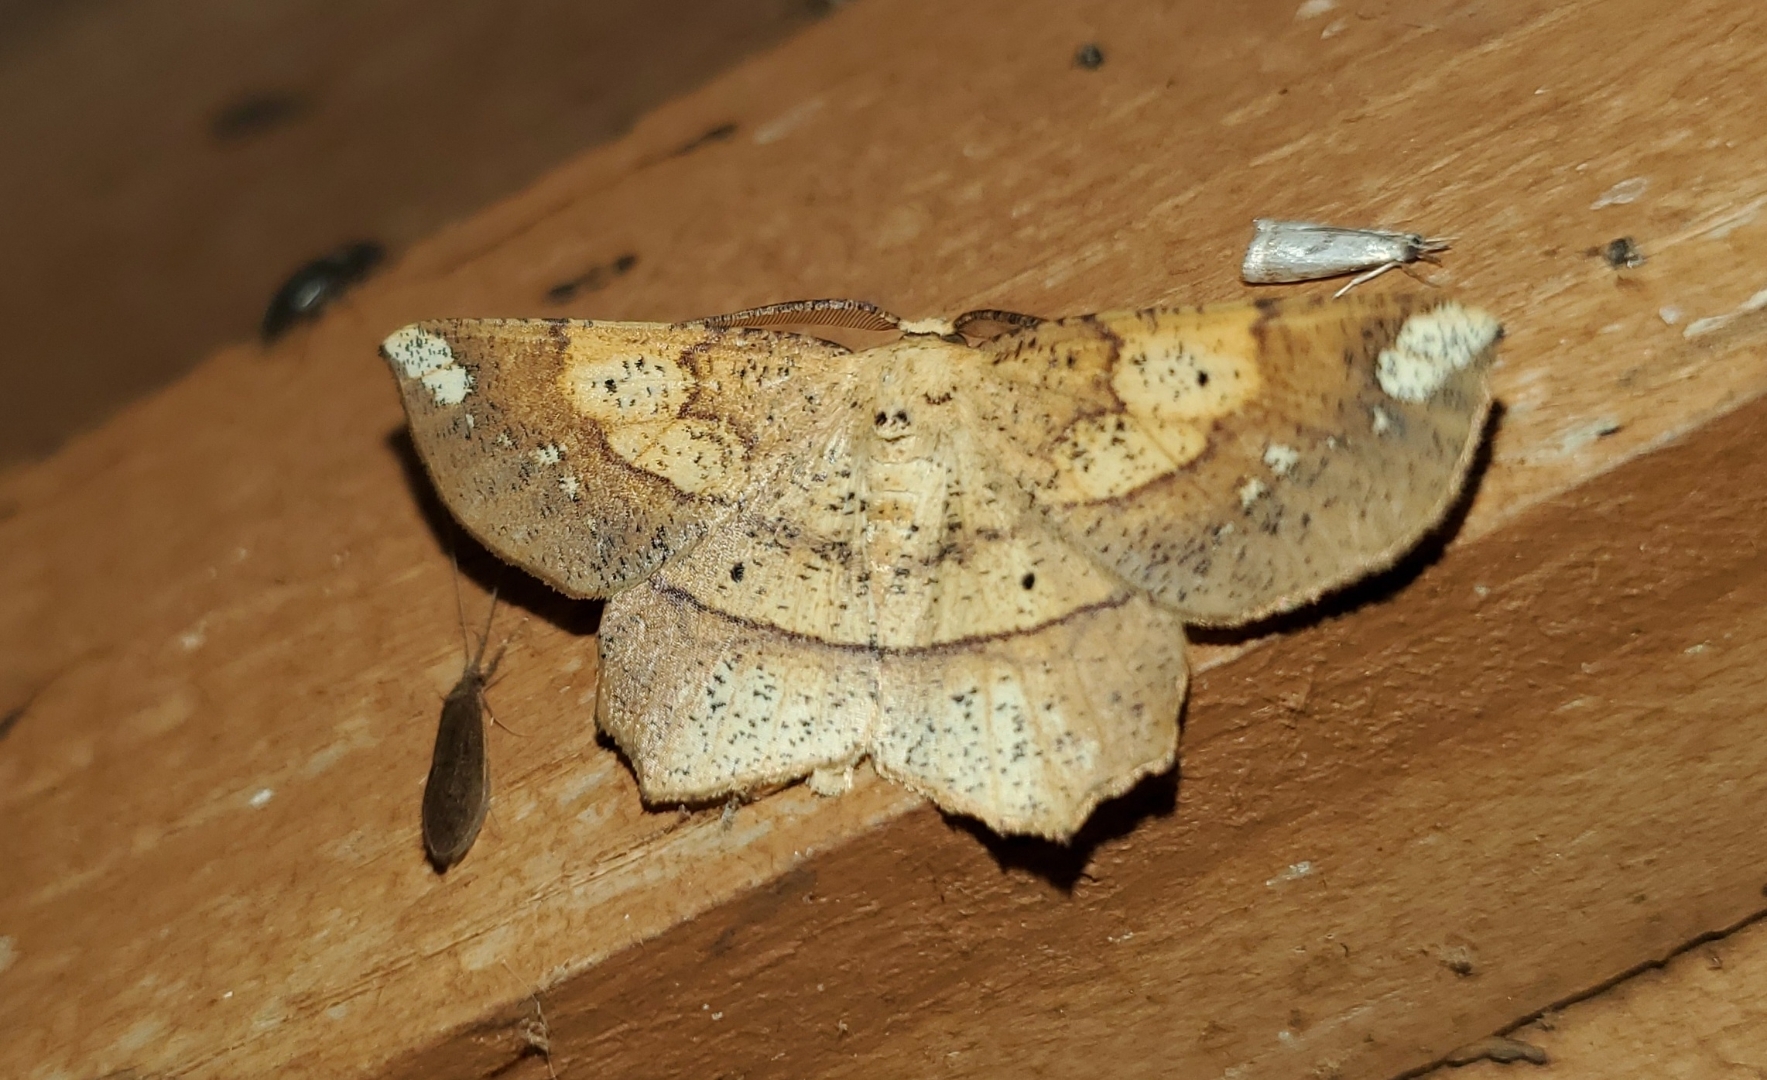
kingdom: Animalia
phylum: Arthropoda
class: Insecta
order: Lepidoptera
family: Geometridae
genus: Euchlaena
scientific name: Euchlaena amoenaria
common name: Deep yellow euchlaena
